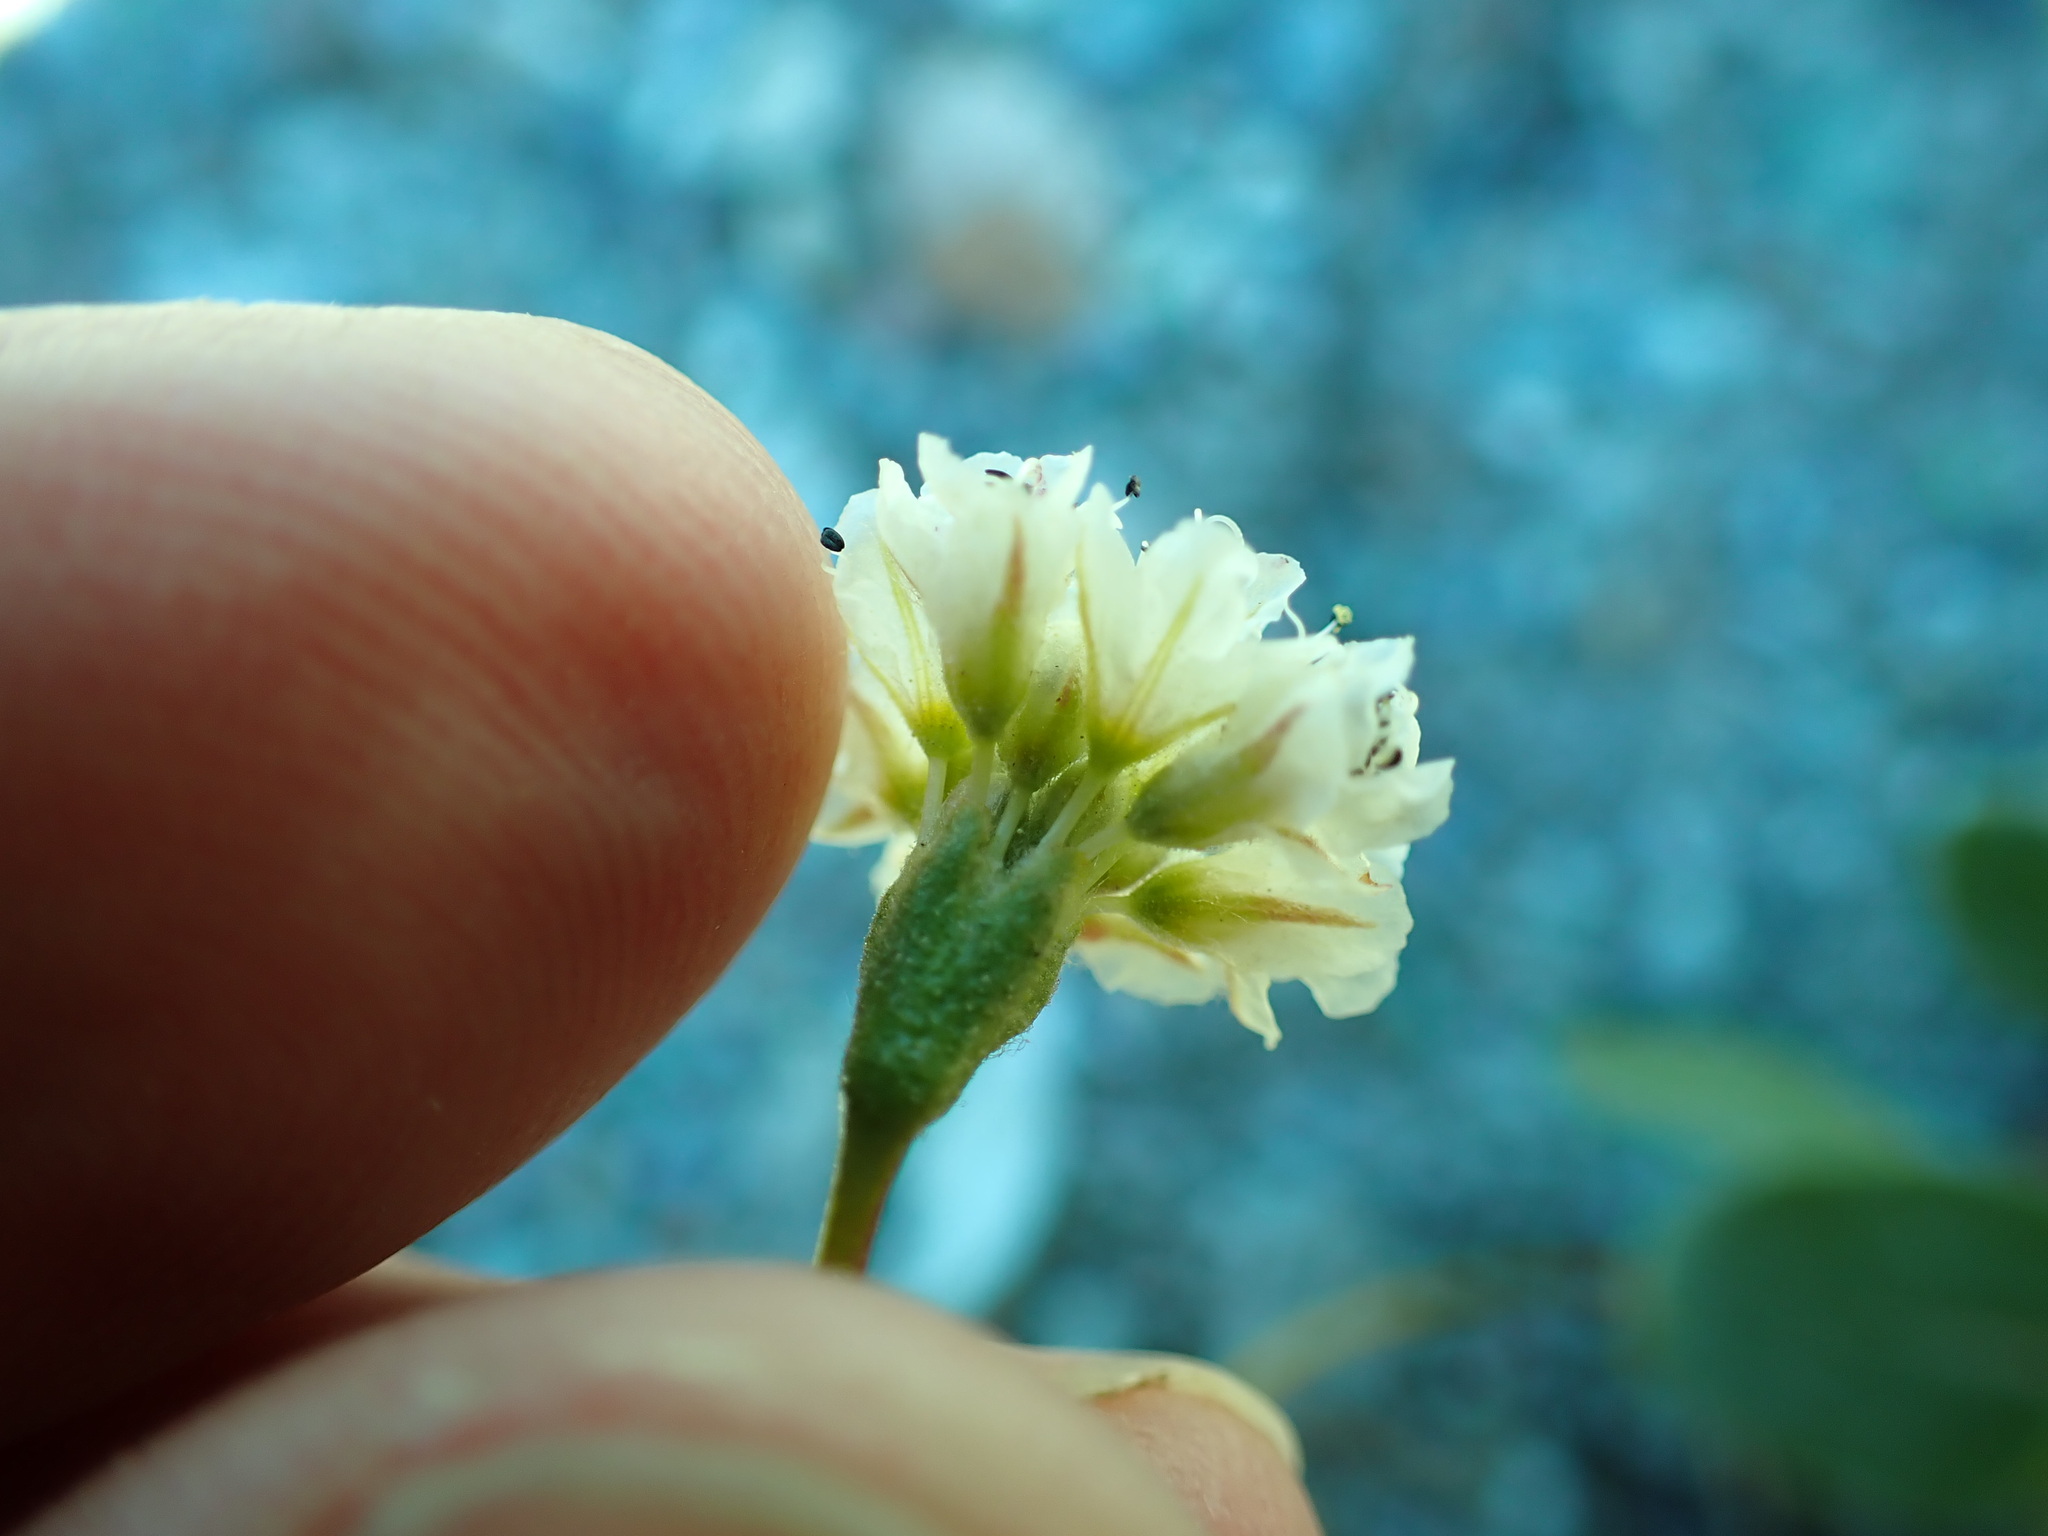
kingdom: Plantae
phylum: Tracheophyta
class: Magnoliopsida
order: Caryophyllales
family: Polygonaceae
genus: Eriogonum
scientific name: Eriogonum pyrolifolium
